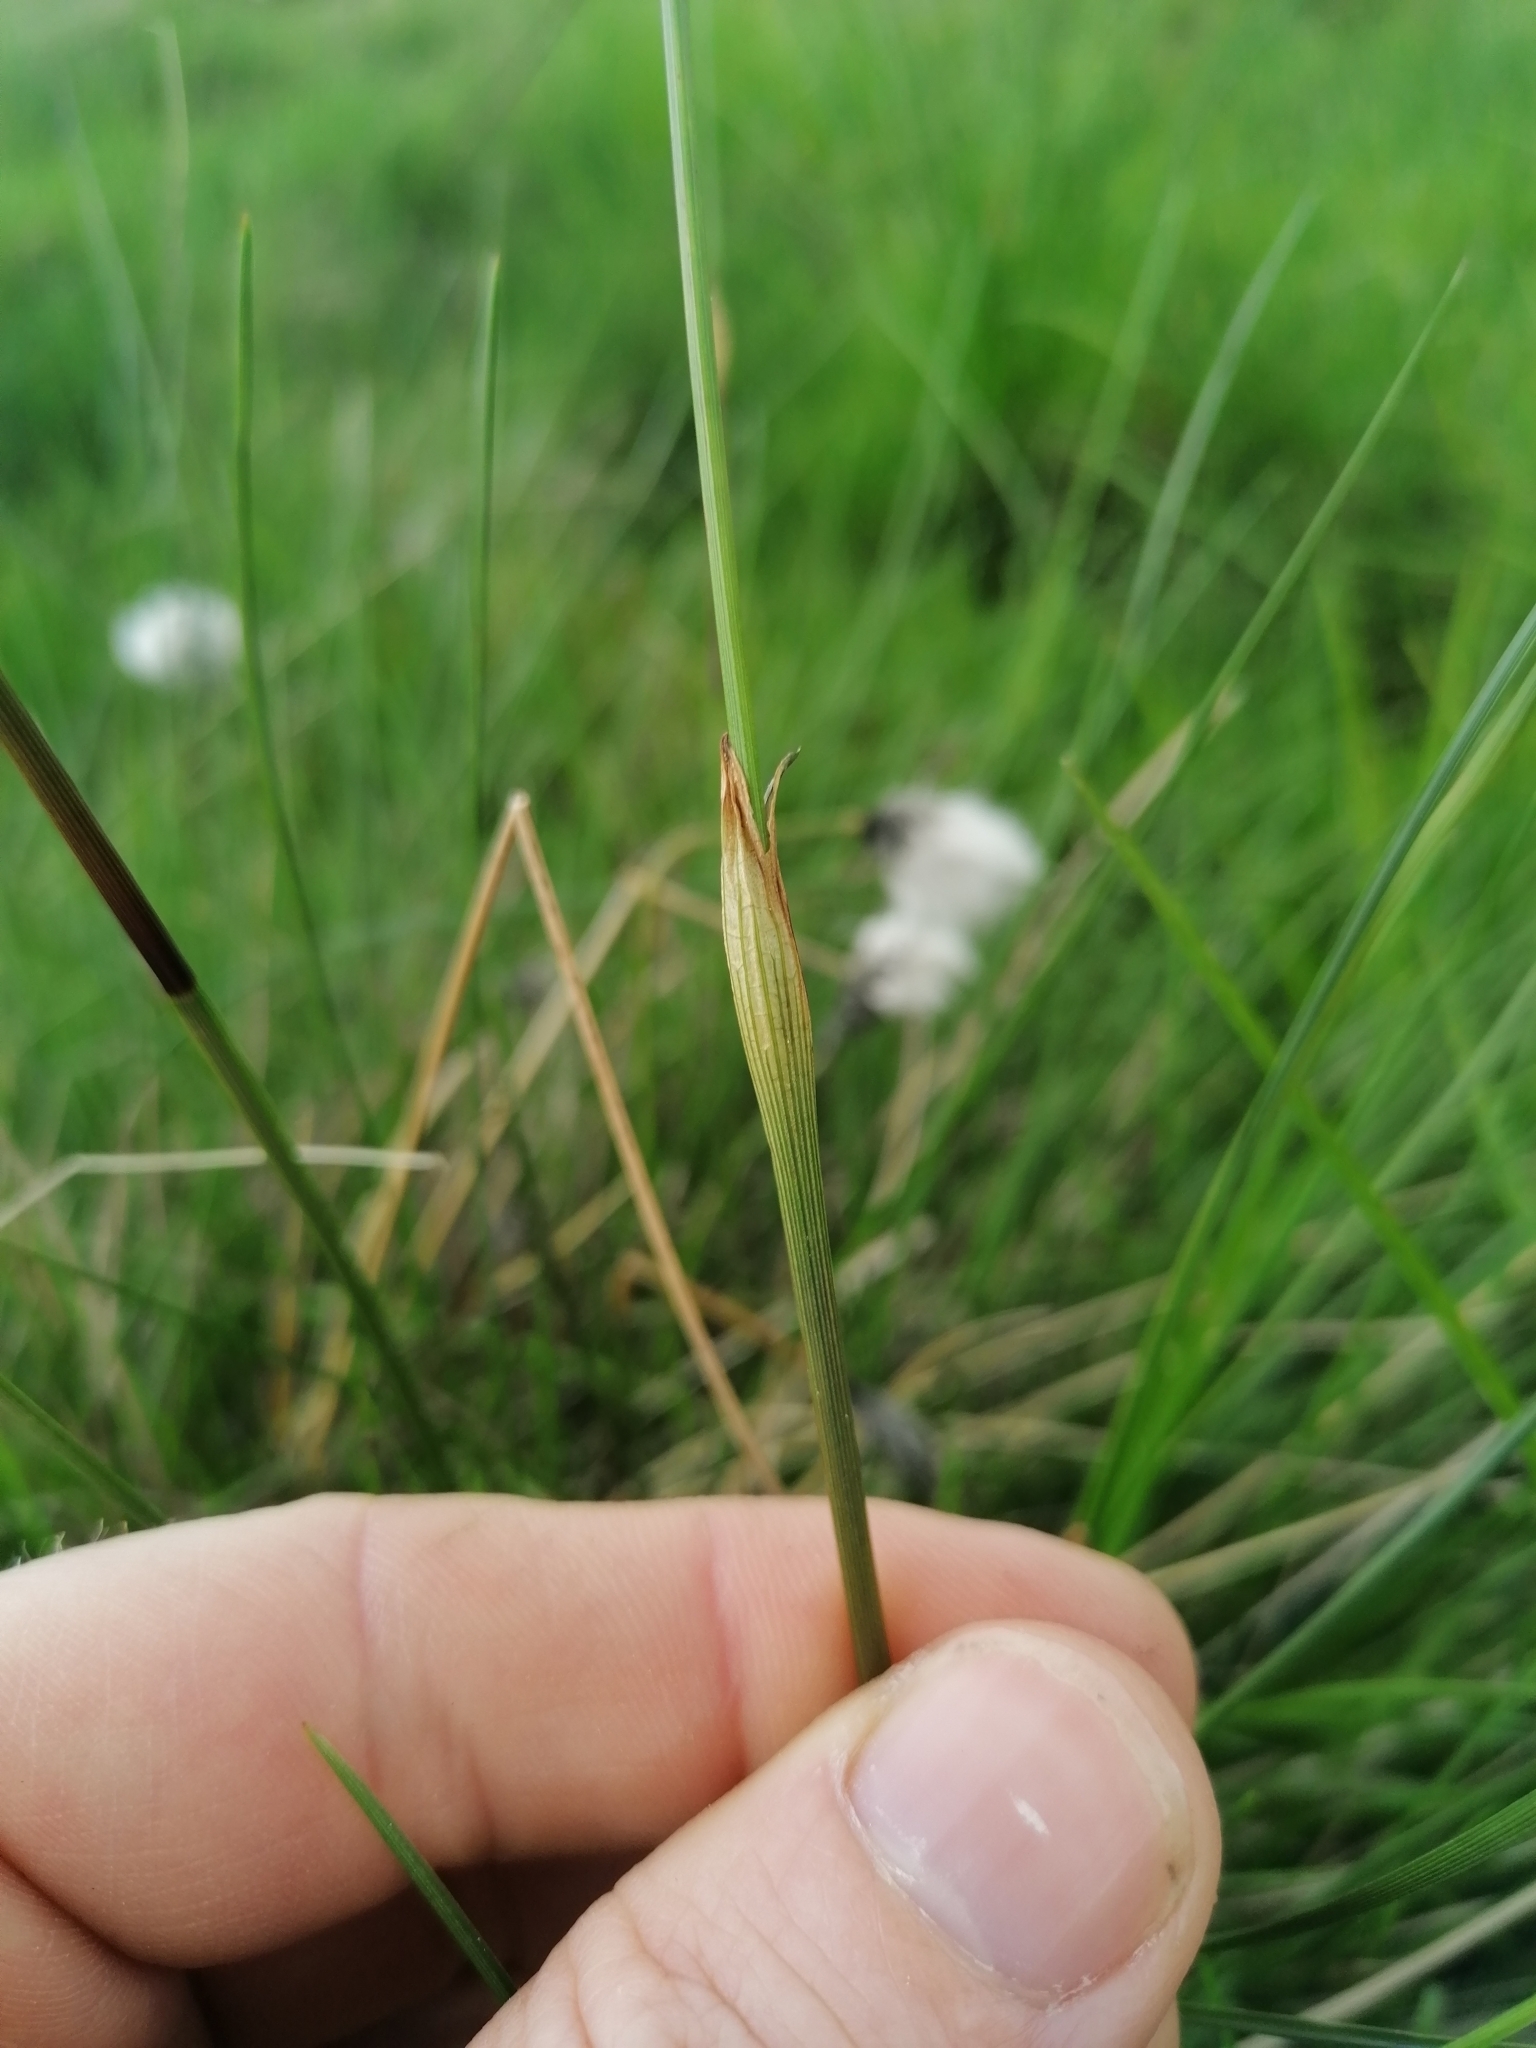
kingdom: Plantae
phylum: Tracheophyta
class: Liliopsida
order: Poales
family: Cyperaceae
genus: Eriophorum
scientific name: Eriophorum vaginatum
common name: Hare's-tail cottongrass
